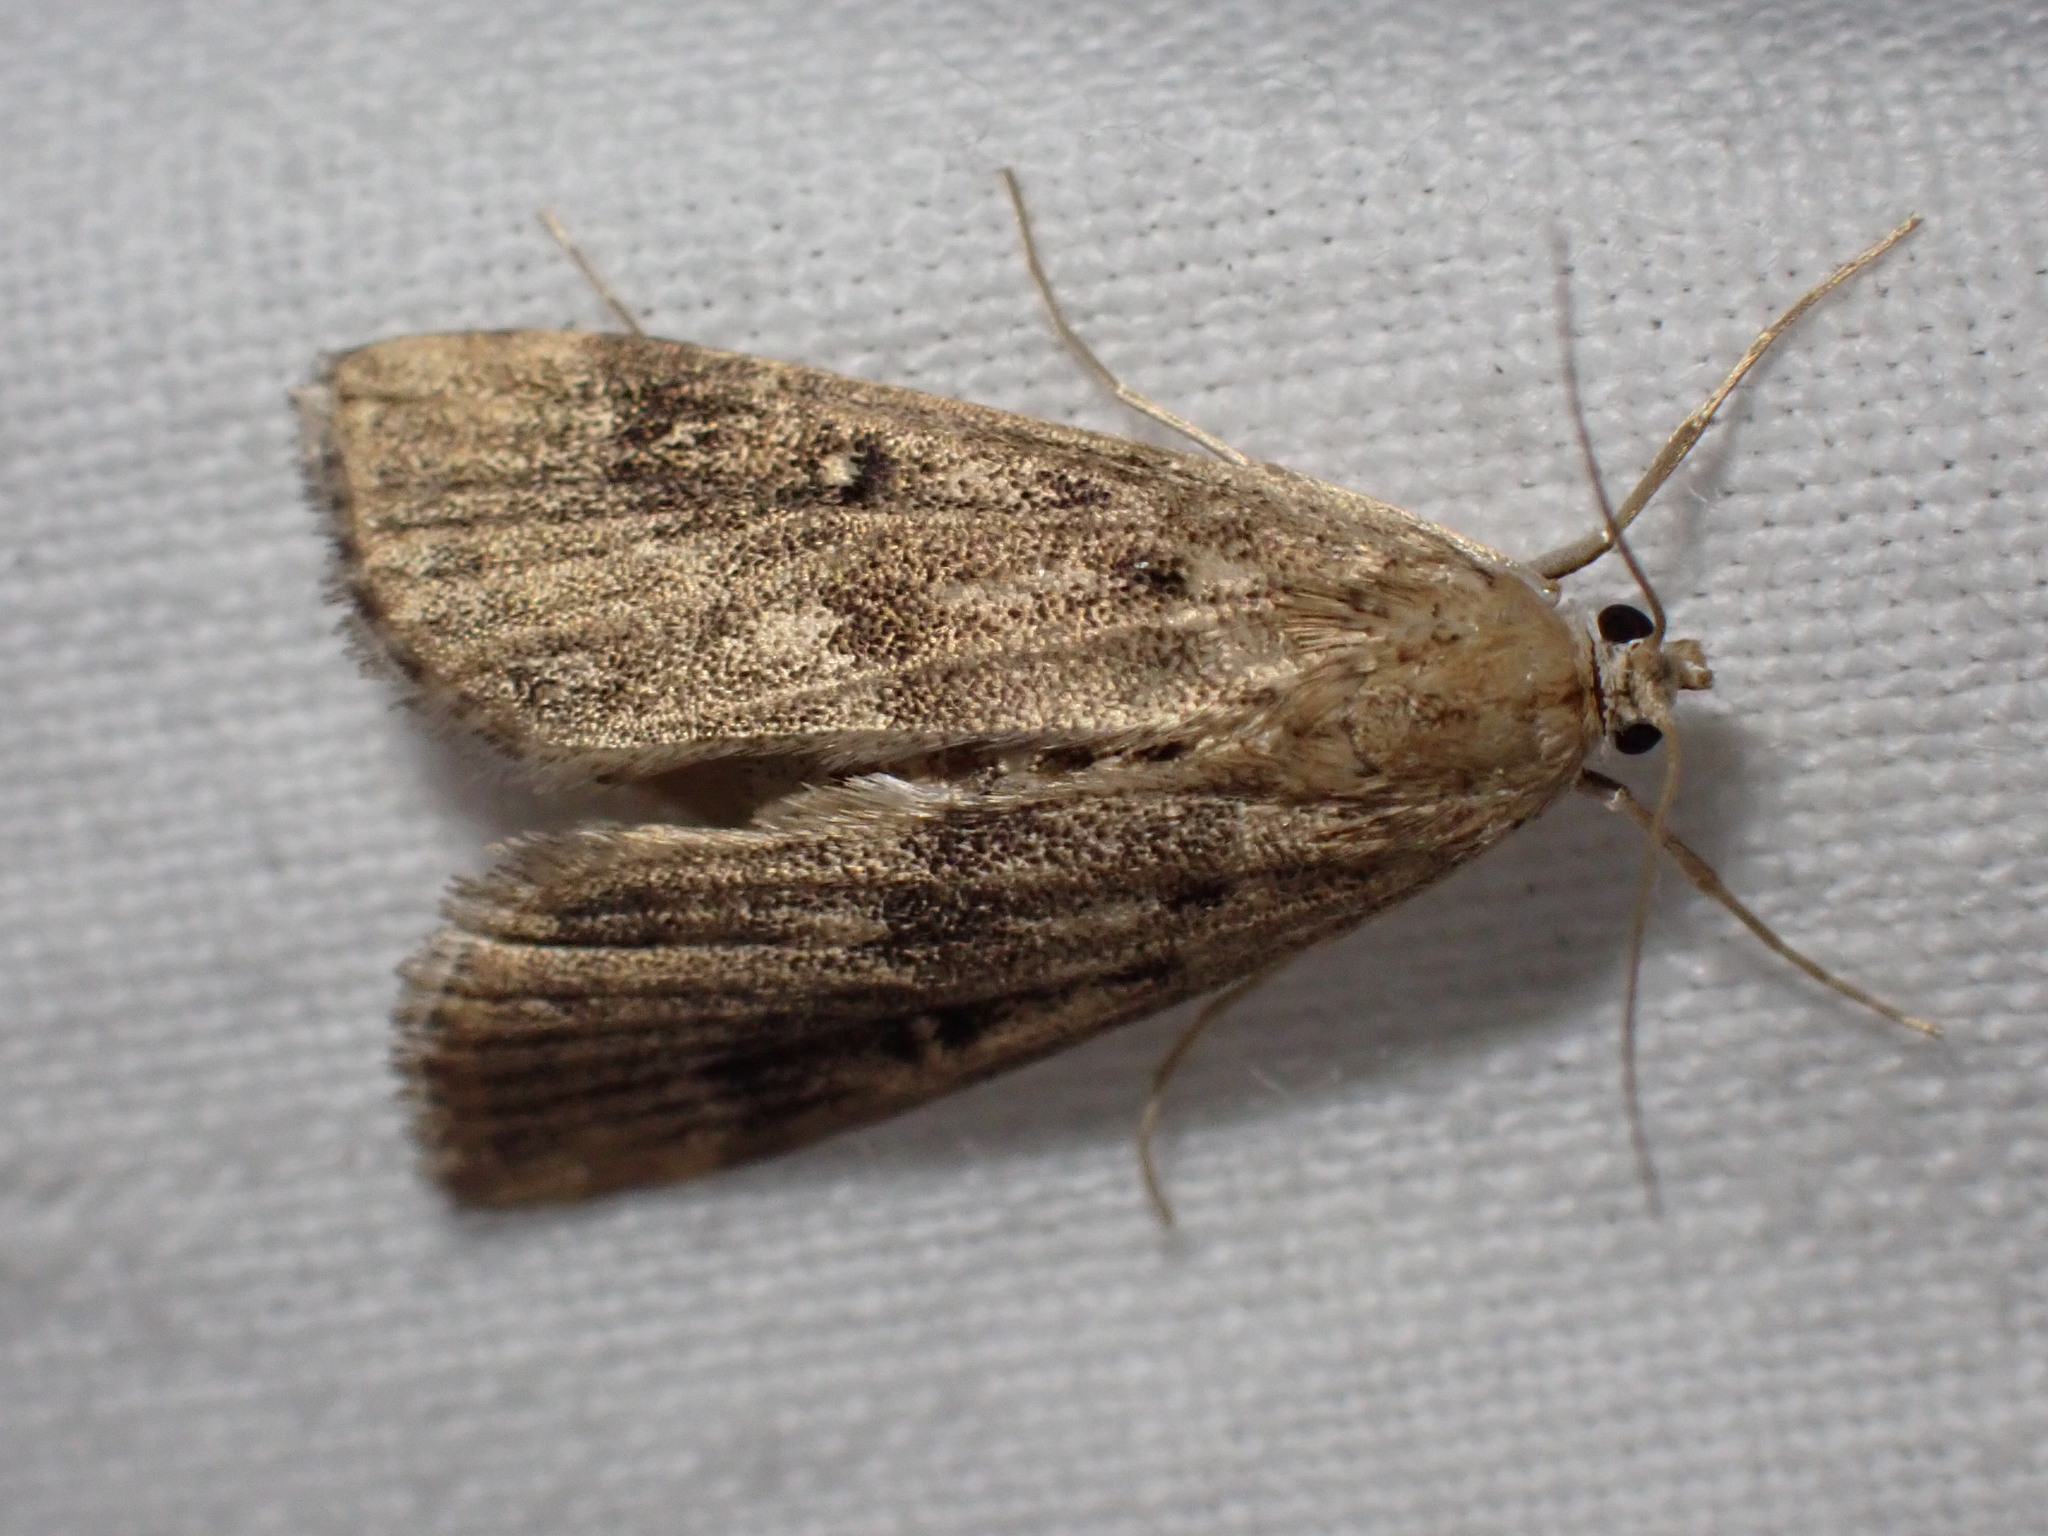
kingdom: Animalia
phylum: Arthropoda
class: Insecta
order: Lepidoptera
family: Crambidae
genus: Parapoynx
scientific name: Parapoynx stratiotata
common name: Ringed china-mark
